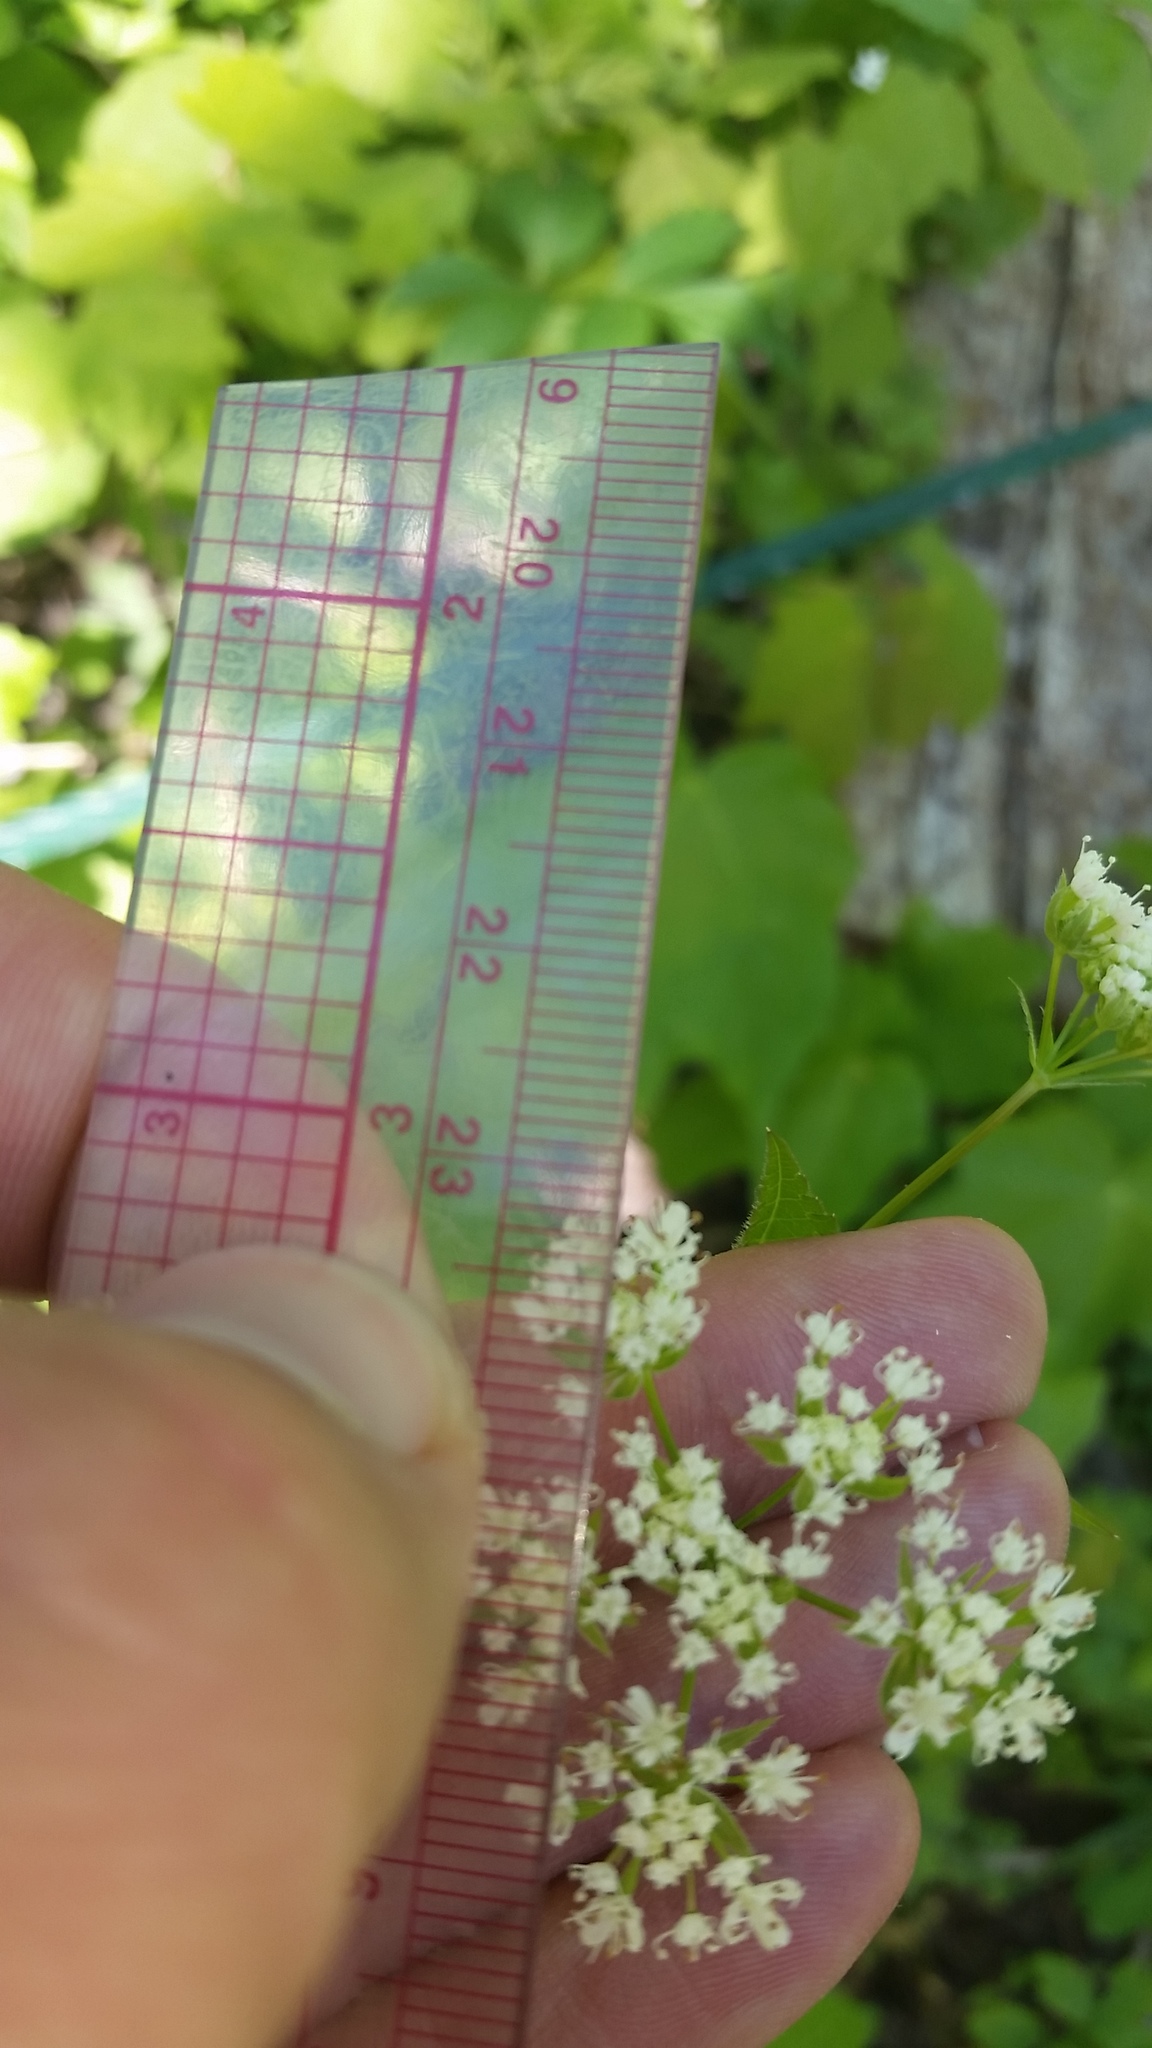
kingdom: Plantae
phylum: Tracheophyta
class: Magnoliopsida
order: Apiales
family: Apiaceae
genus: Osmorhiza
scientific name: Osmorhiza longistylis
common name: Smooth sweet cicely
